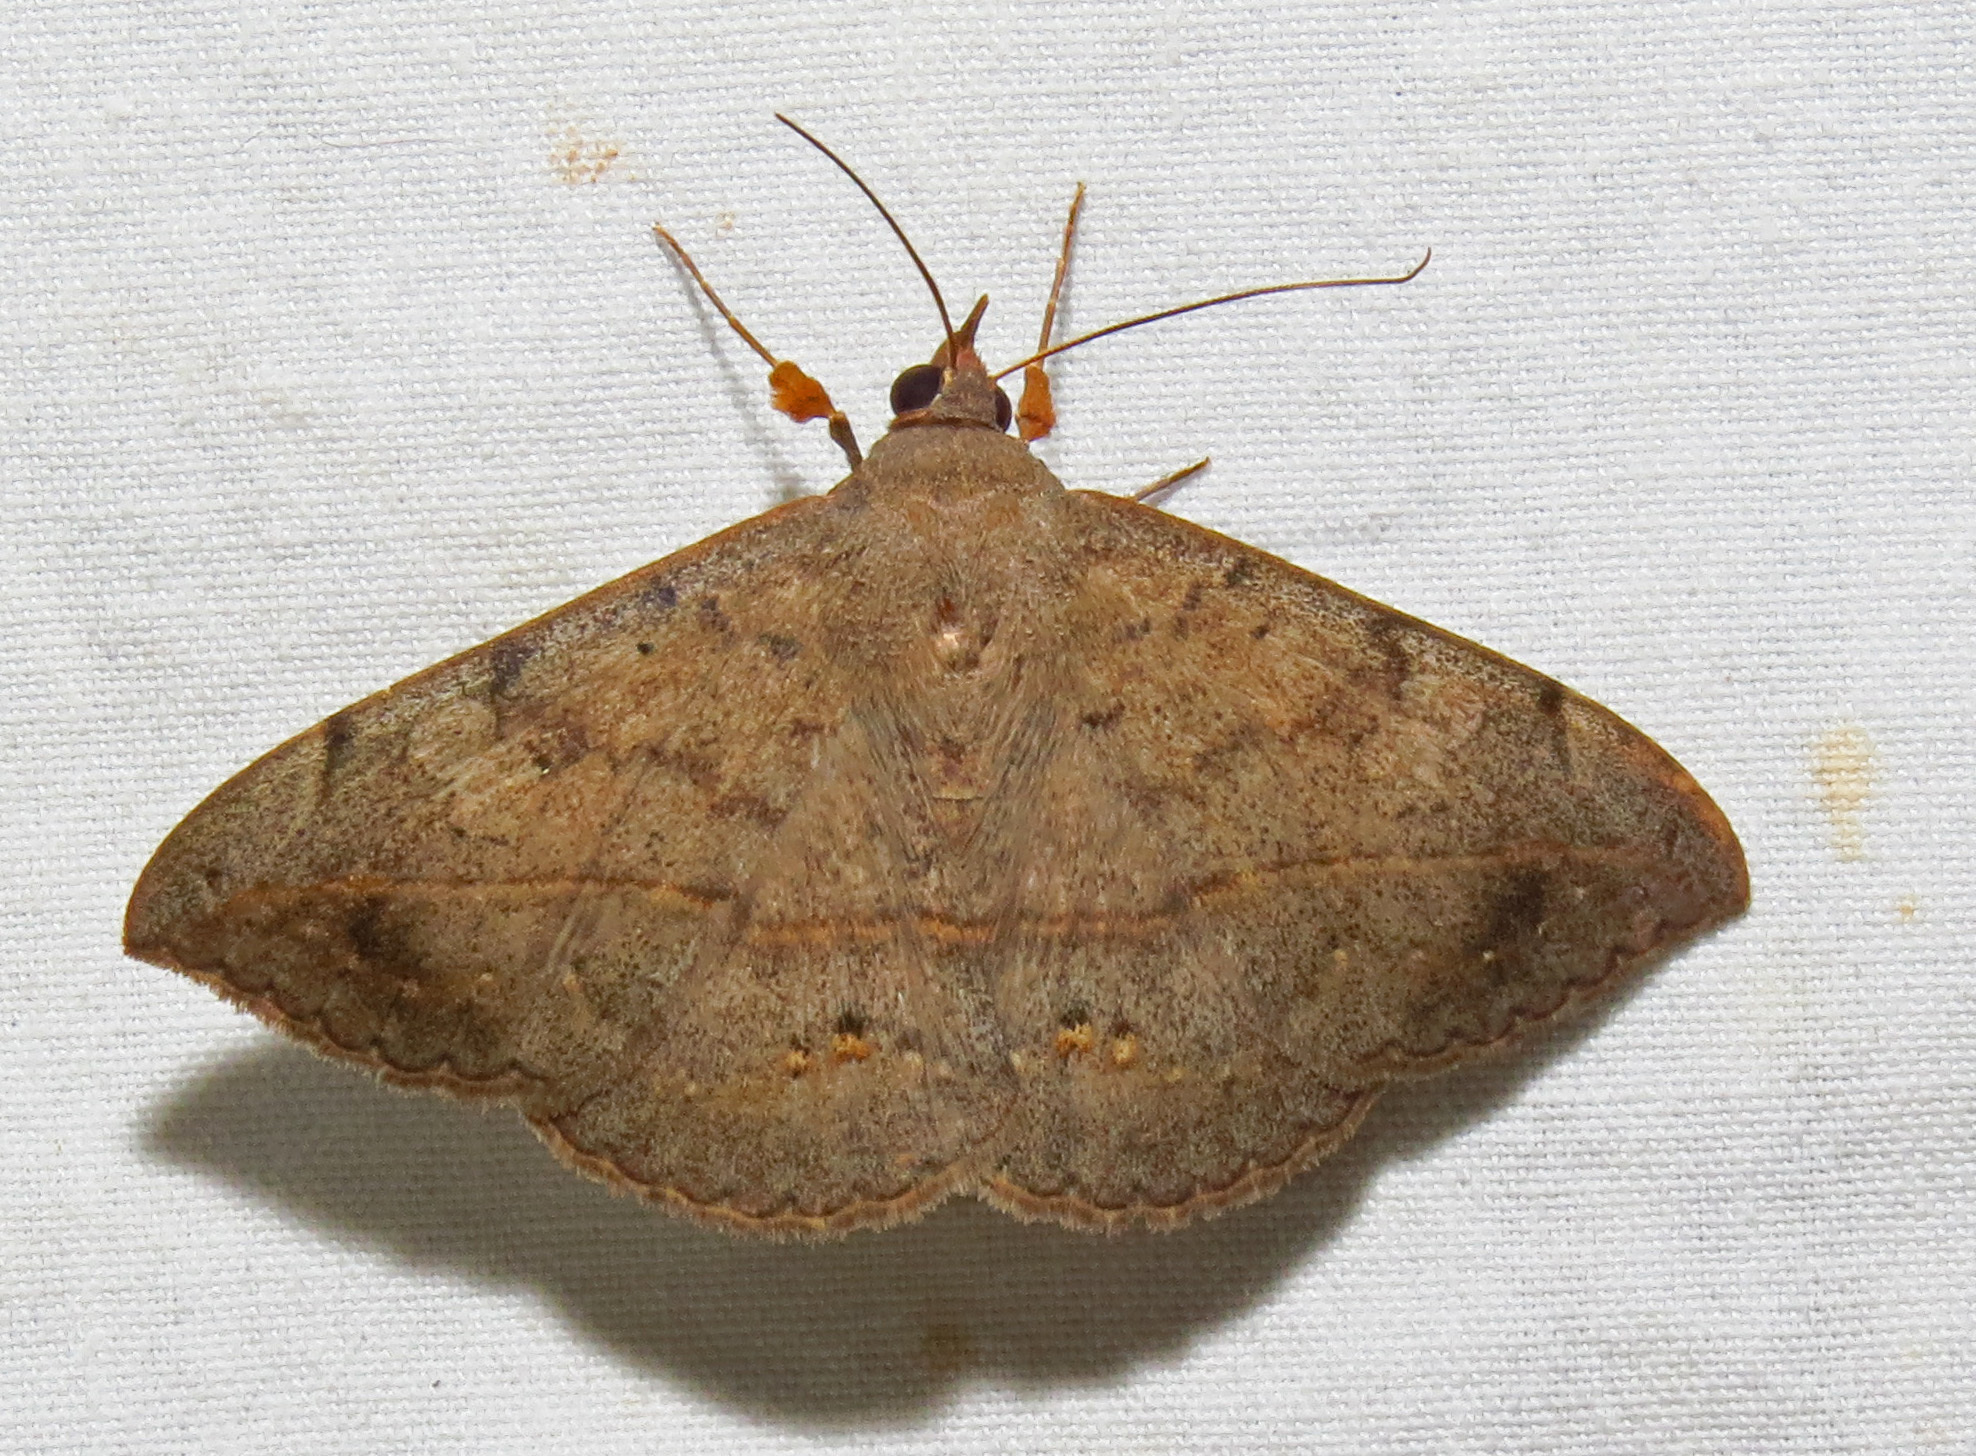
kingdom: Animalia
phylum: Arthropoda
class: Insecta
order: Lepidoptera
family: Erebidae
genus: Anticarsia
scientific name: Anticarsia gemmatalis
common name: Cutworm moth
